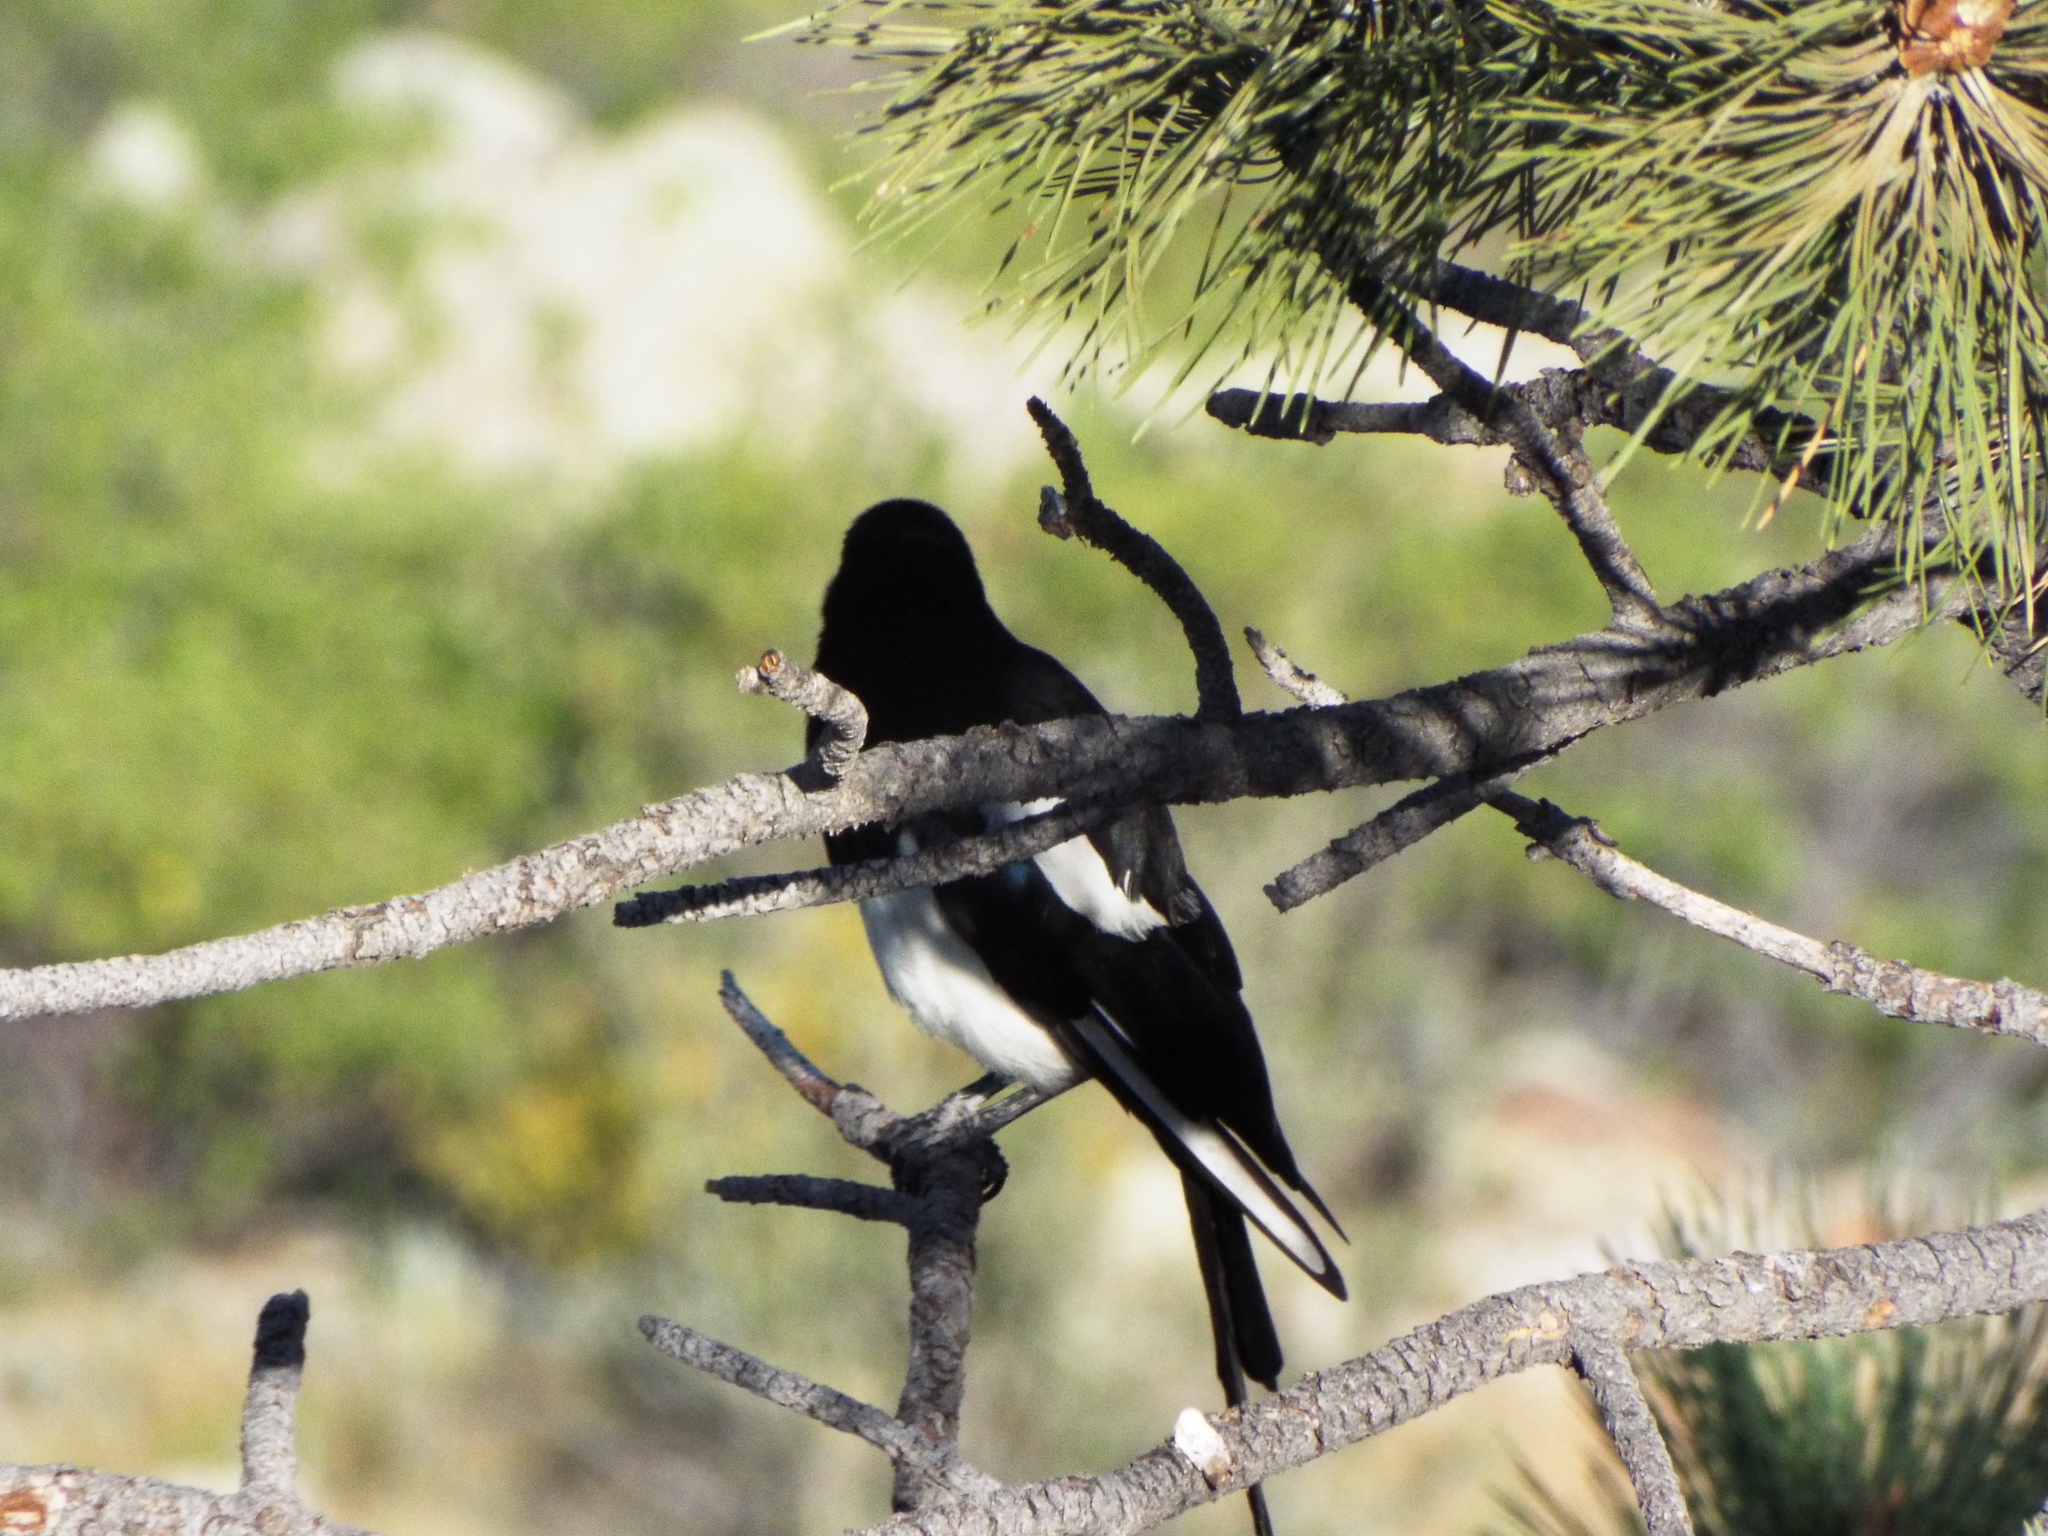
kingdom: Animalia
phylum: Chordata
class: Aves
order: Passeriformes
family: Corvidae
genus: Pica
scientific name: Pica hudsonia
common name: Black-billed magpie
